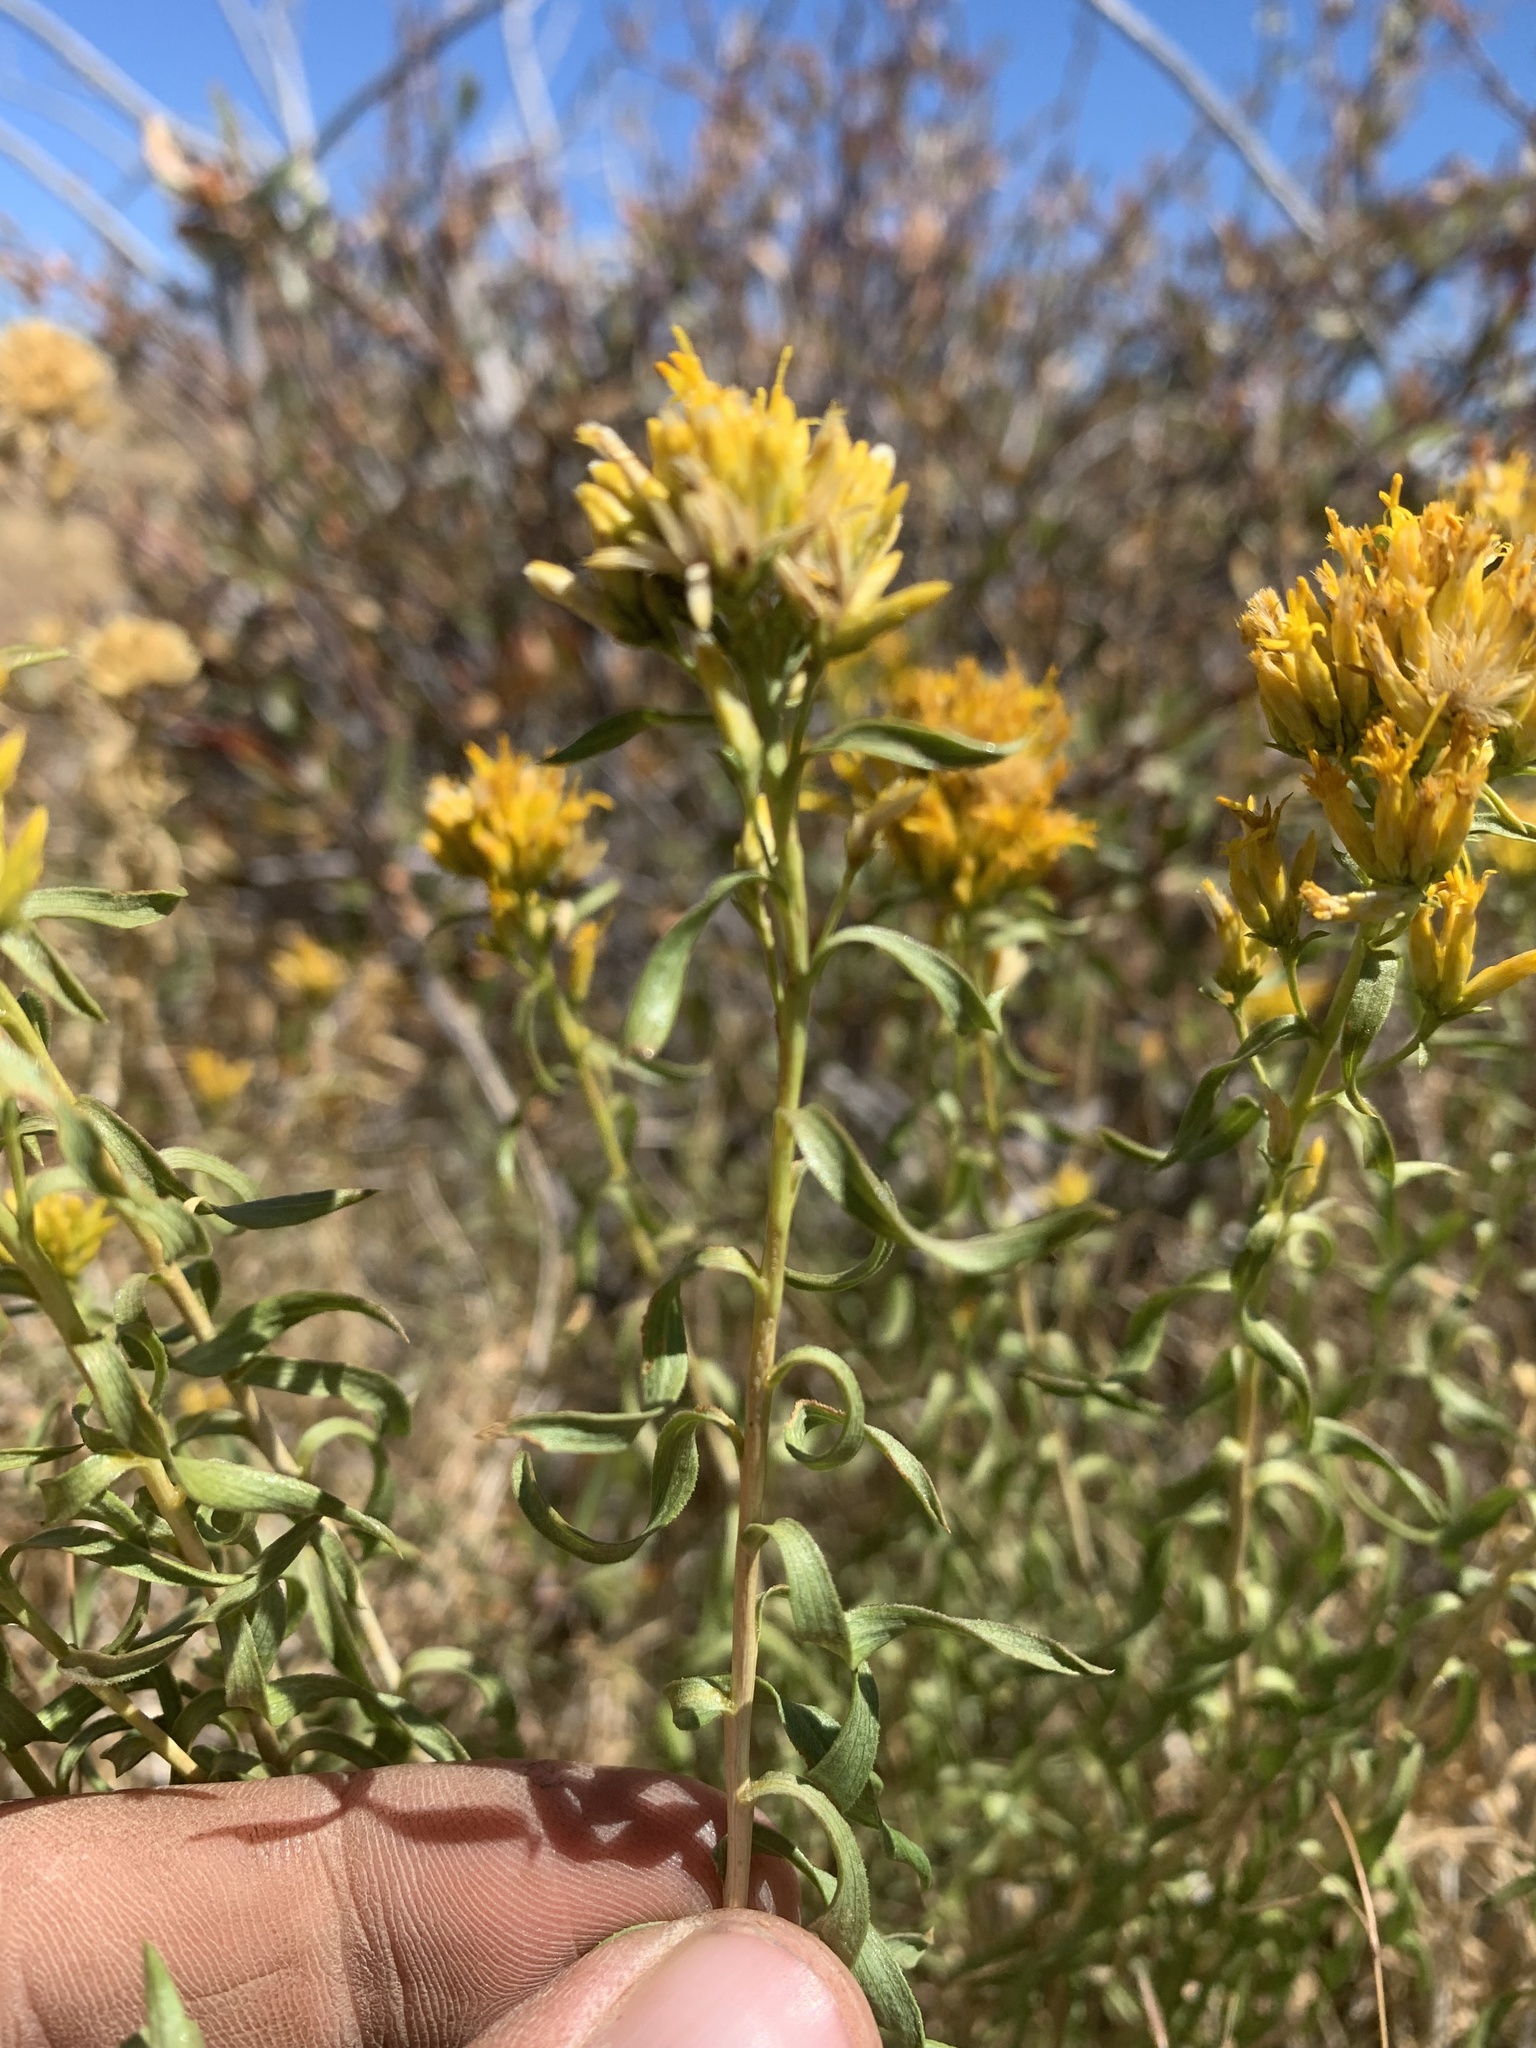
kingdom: Plantae
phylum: Tracheophyta
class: Magnoliopsida
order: Asterales
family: Asteraceae
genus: Chrysothamnus
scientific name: Chrysothamnus viscidiflorus
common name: Yellow rabbitbrush
